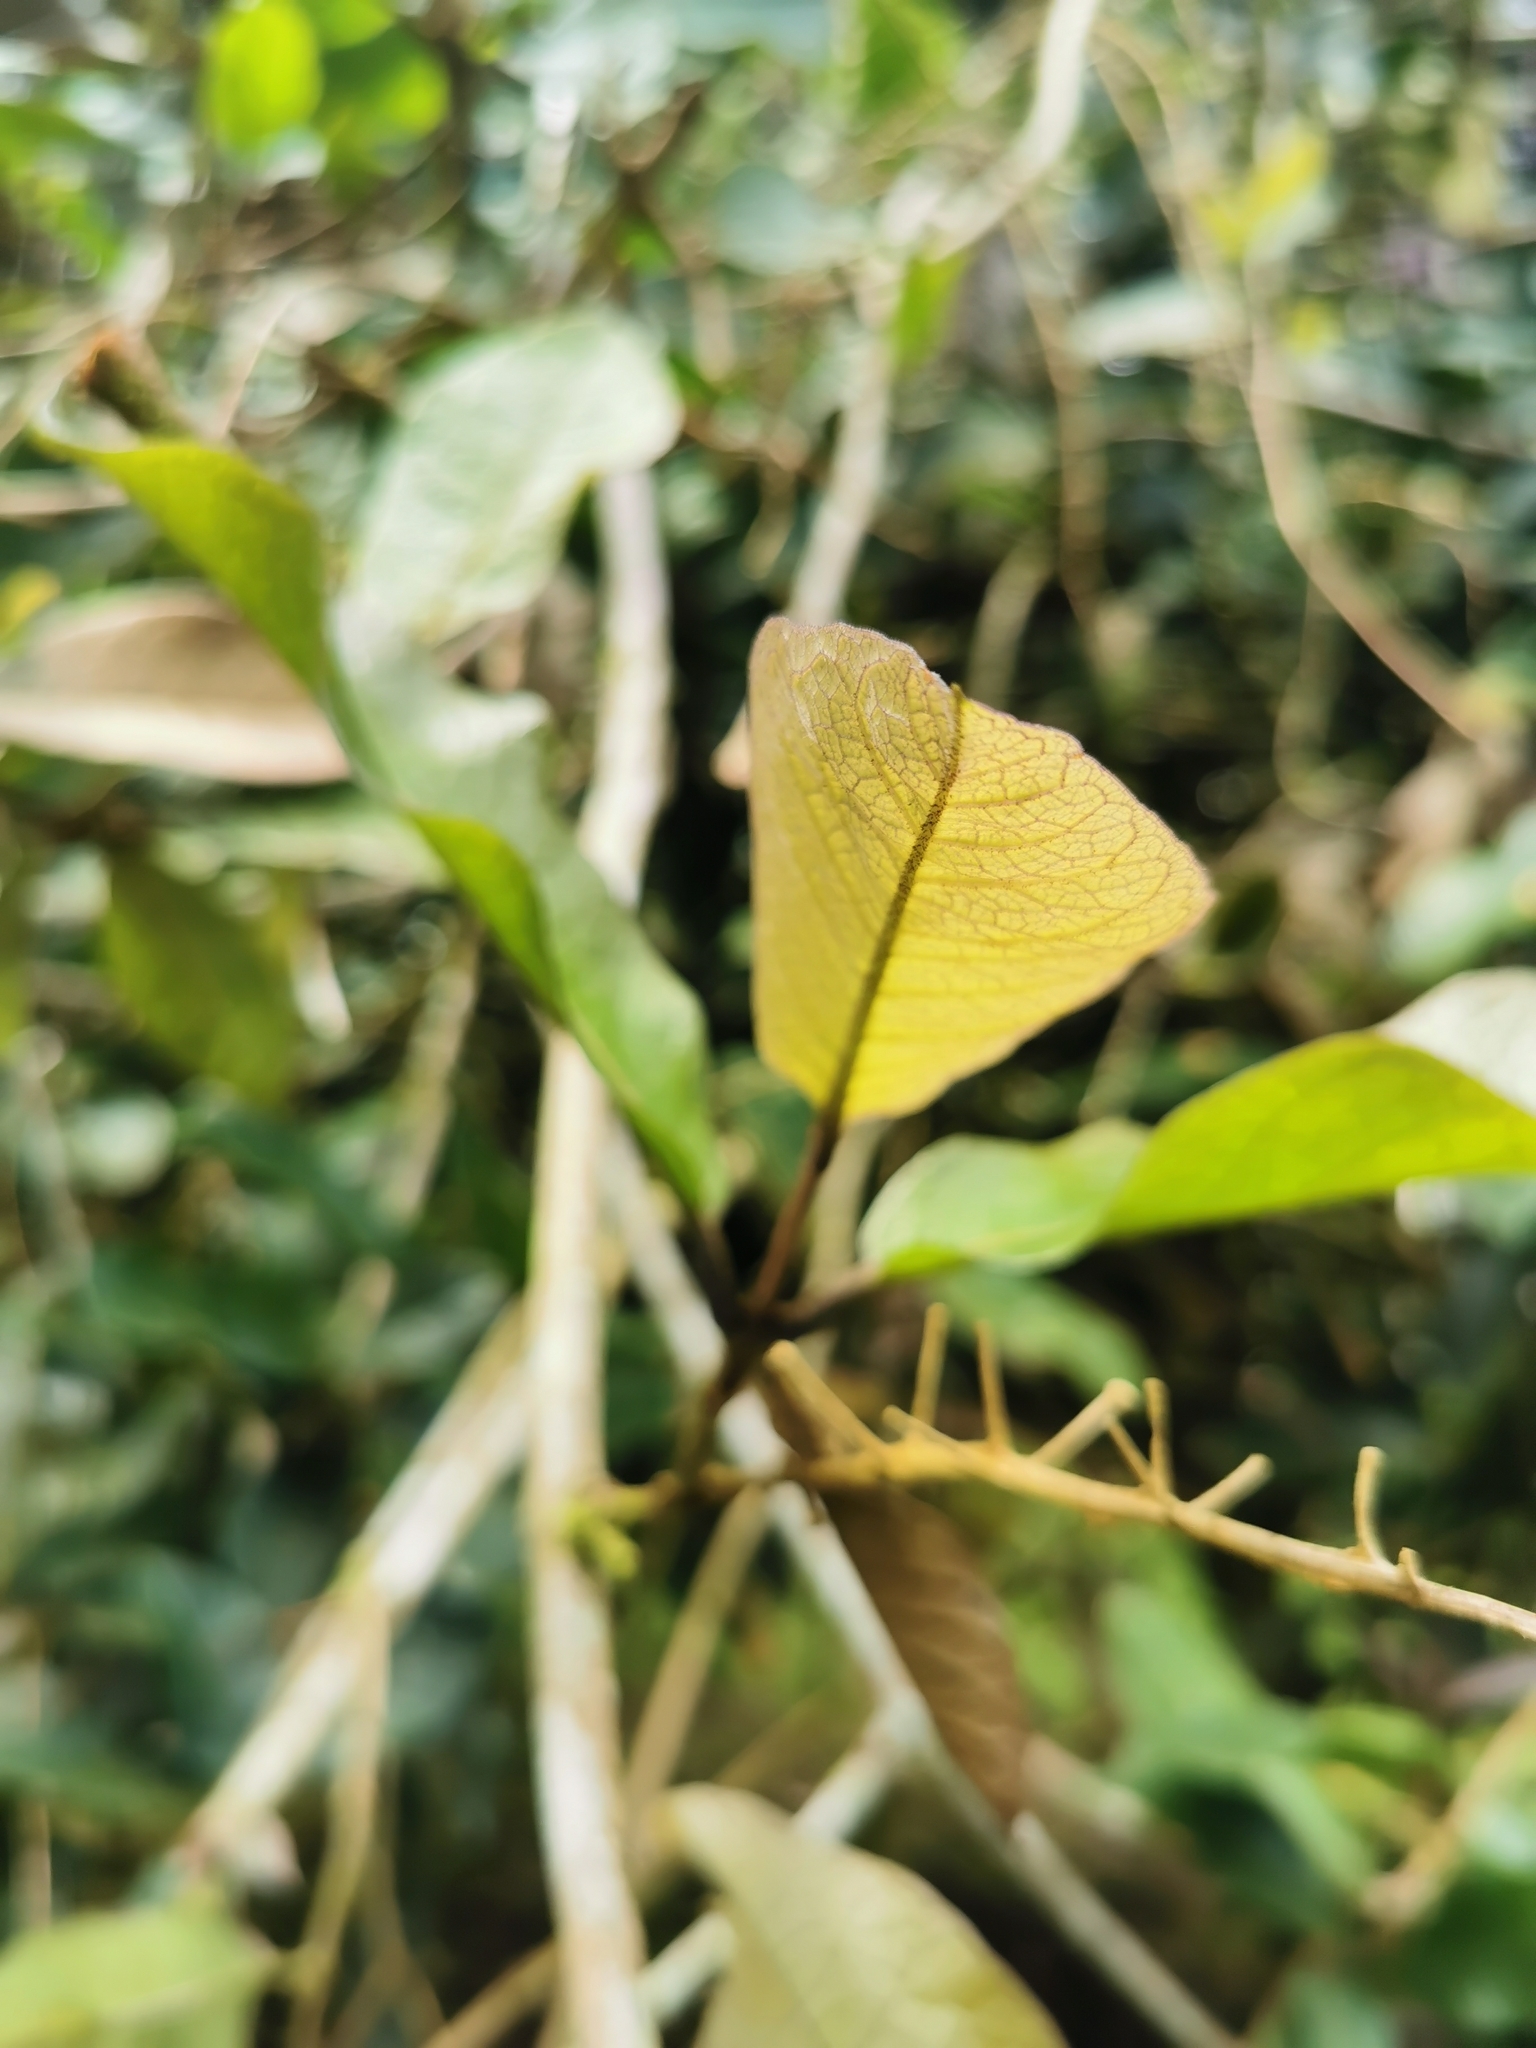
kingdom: Plantae
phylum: Tracheophyta
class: Magnoliopsida
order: Lamiales
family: Verbenaceae
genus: Petrea
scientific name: Petrea volubilis
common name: Queen's-wreath
